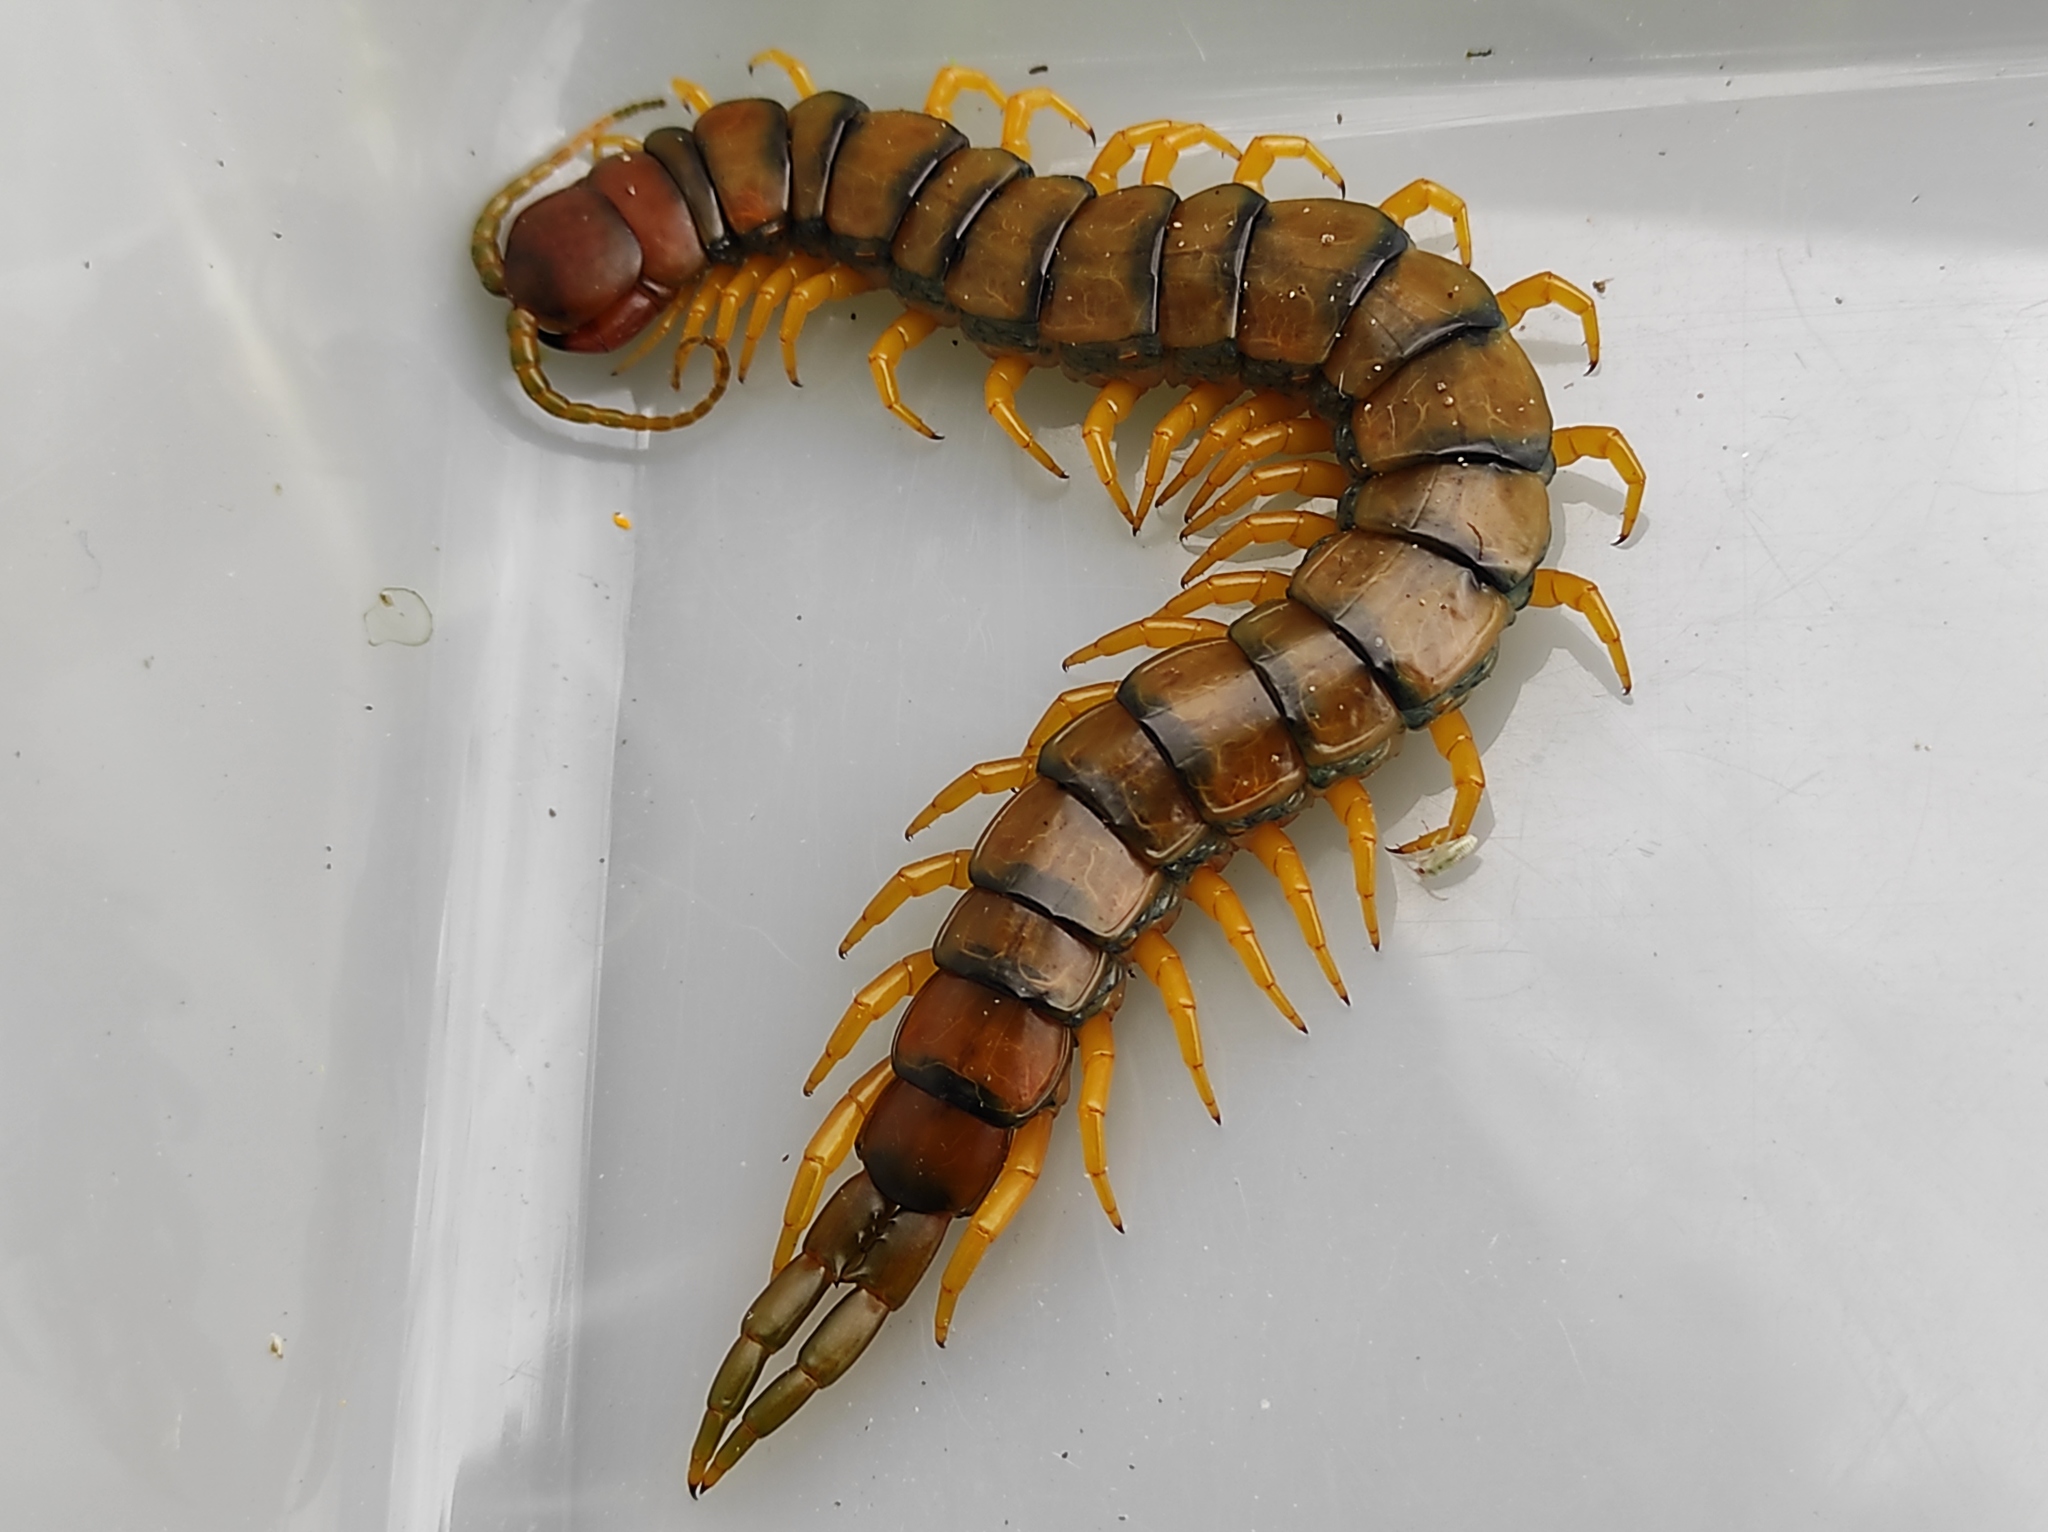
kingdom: Animalia
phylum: Arthropoda
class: Chilopoda
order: Scolopendromorpha
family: Scolopendridae
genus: Scolopendra
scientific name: Scolopendra cingulata
